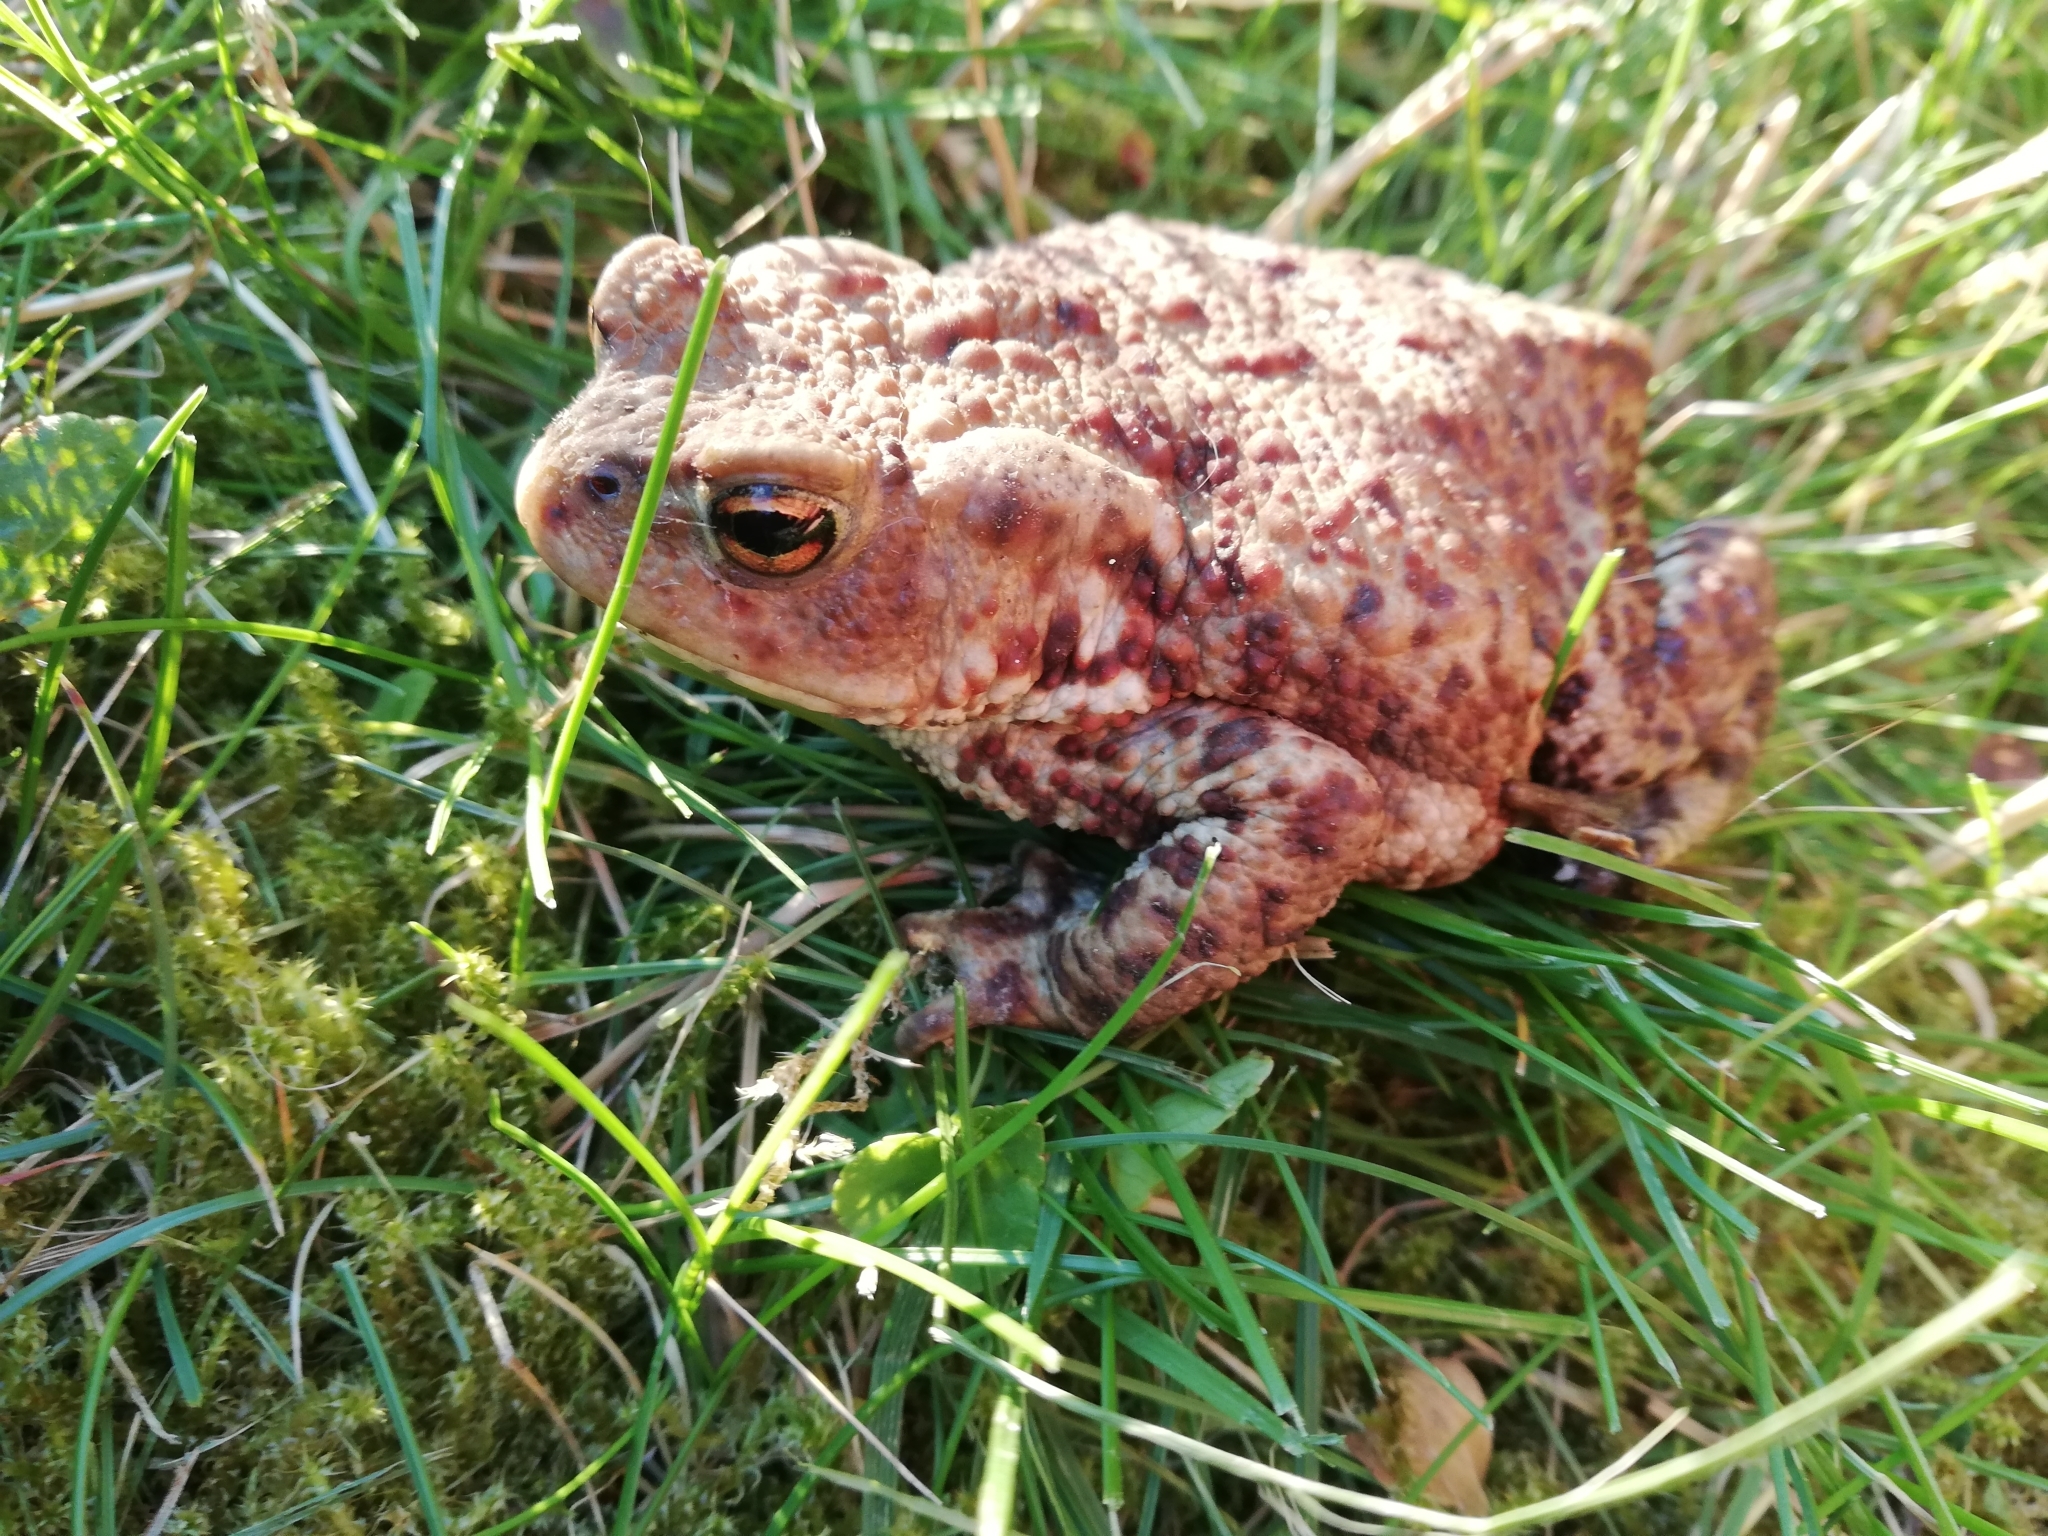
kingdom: Animalia
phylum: Chordata
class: Amphibia
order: Anura
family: Bufonidae
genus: Bufo
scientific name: Bufo bufo
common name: Common toad
